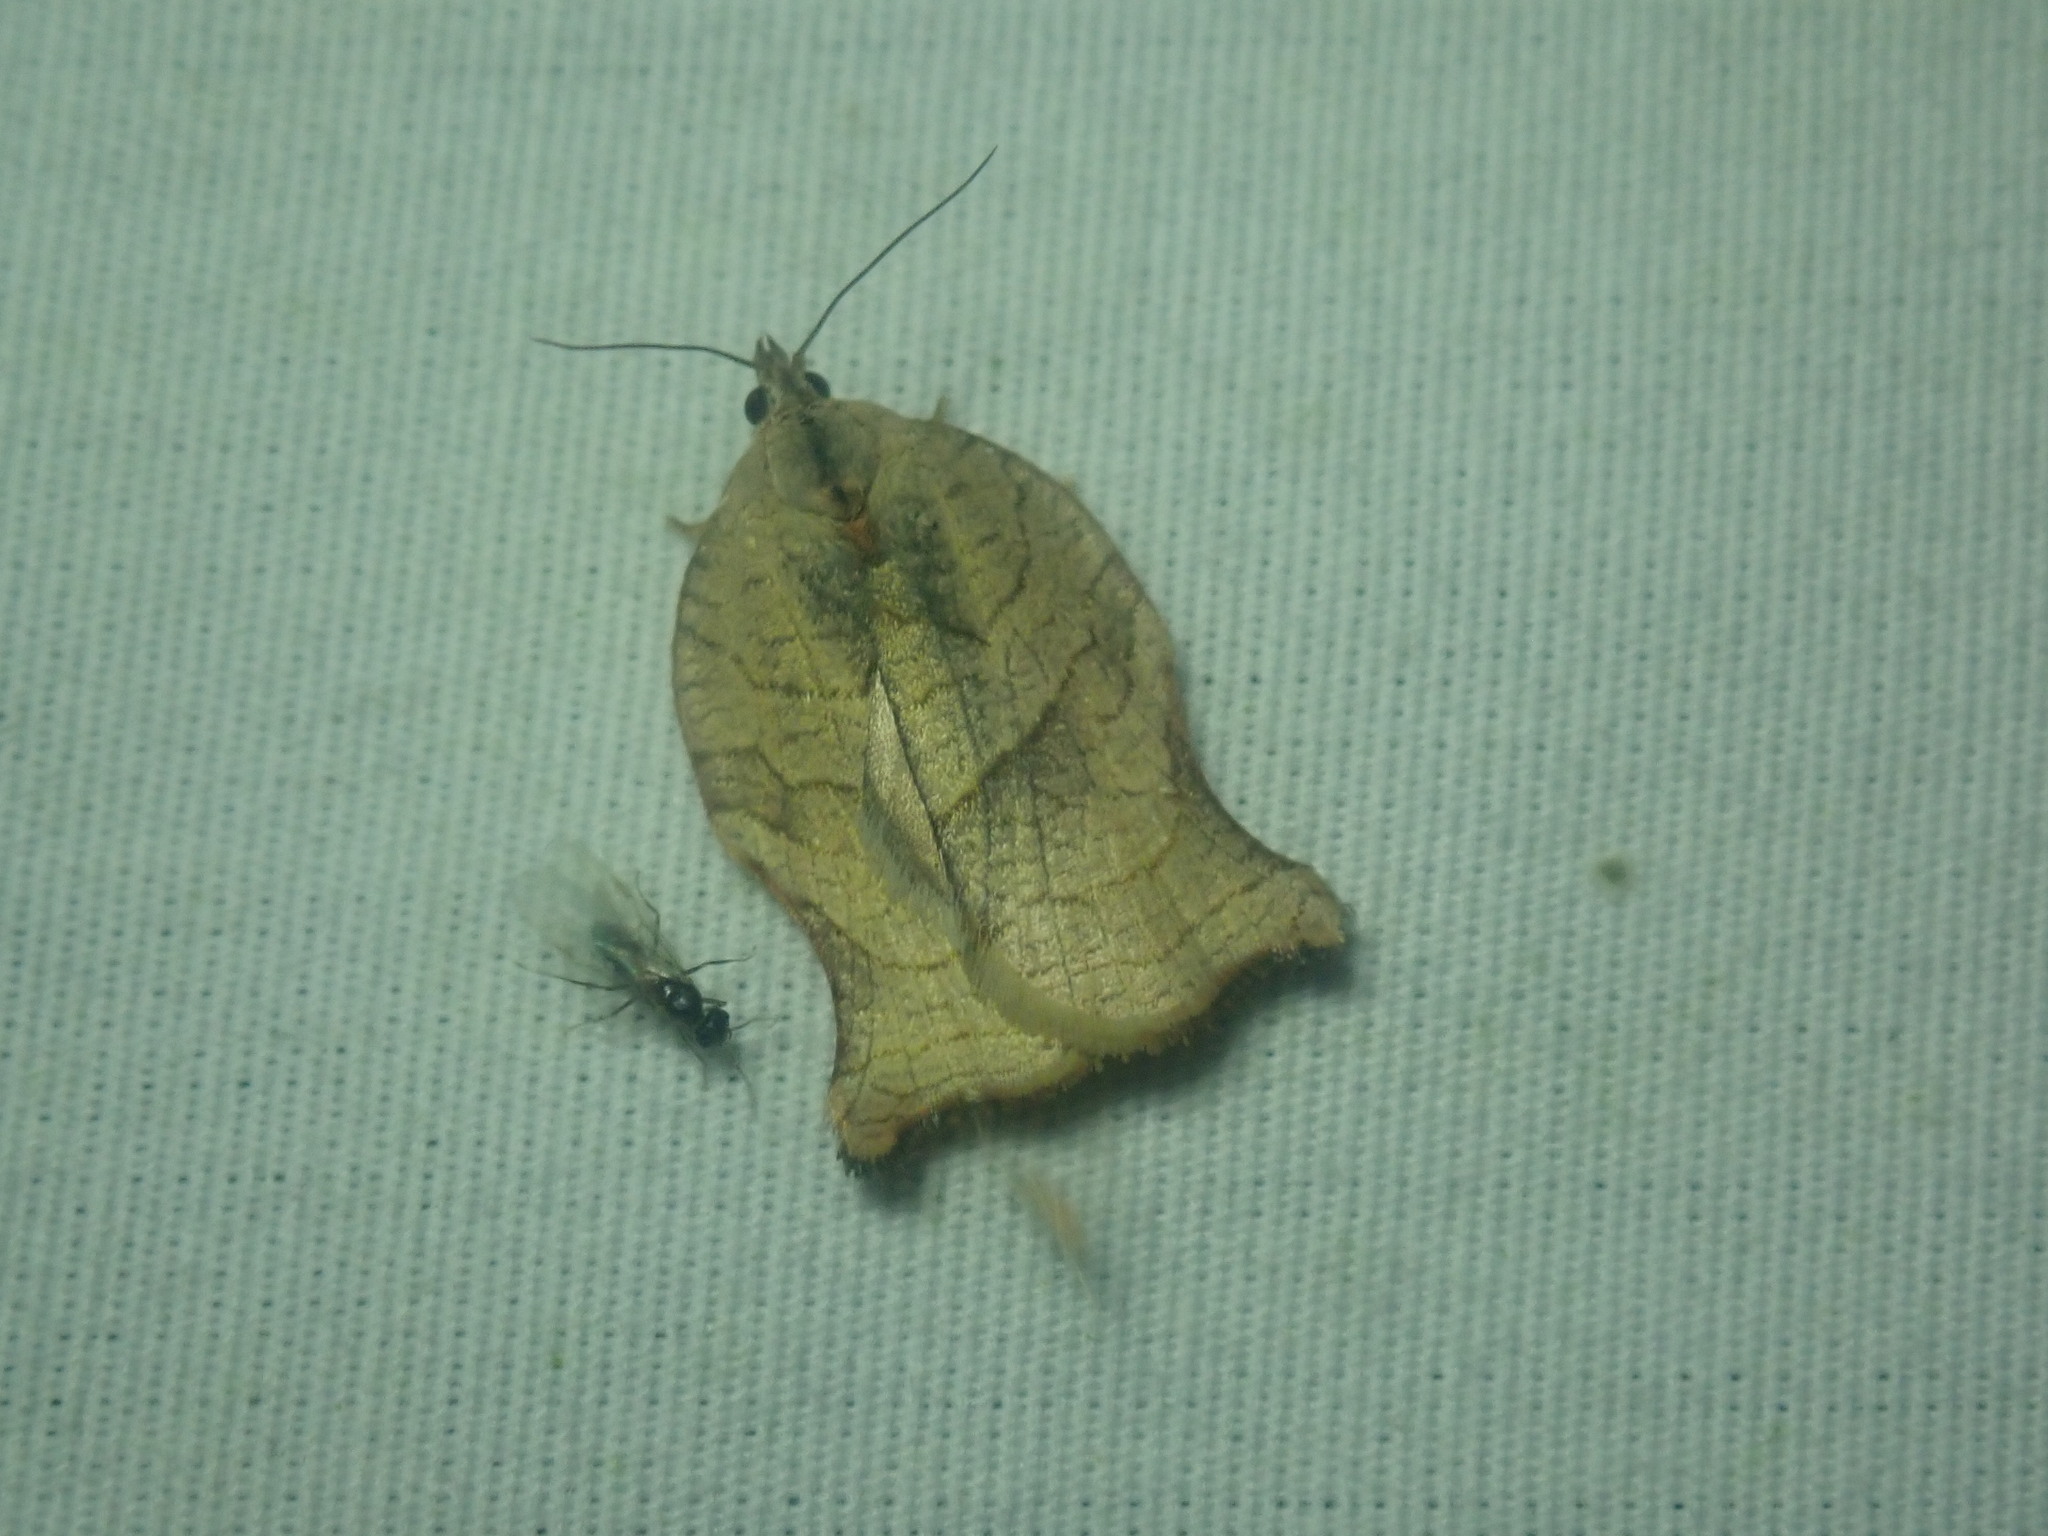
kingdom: Animalia
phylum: Arthropoda
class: Insecta
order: Lepidoptera
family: Tortricidae
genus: Archips
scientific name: Archips purpurana
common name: Omnivorous leafroller
